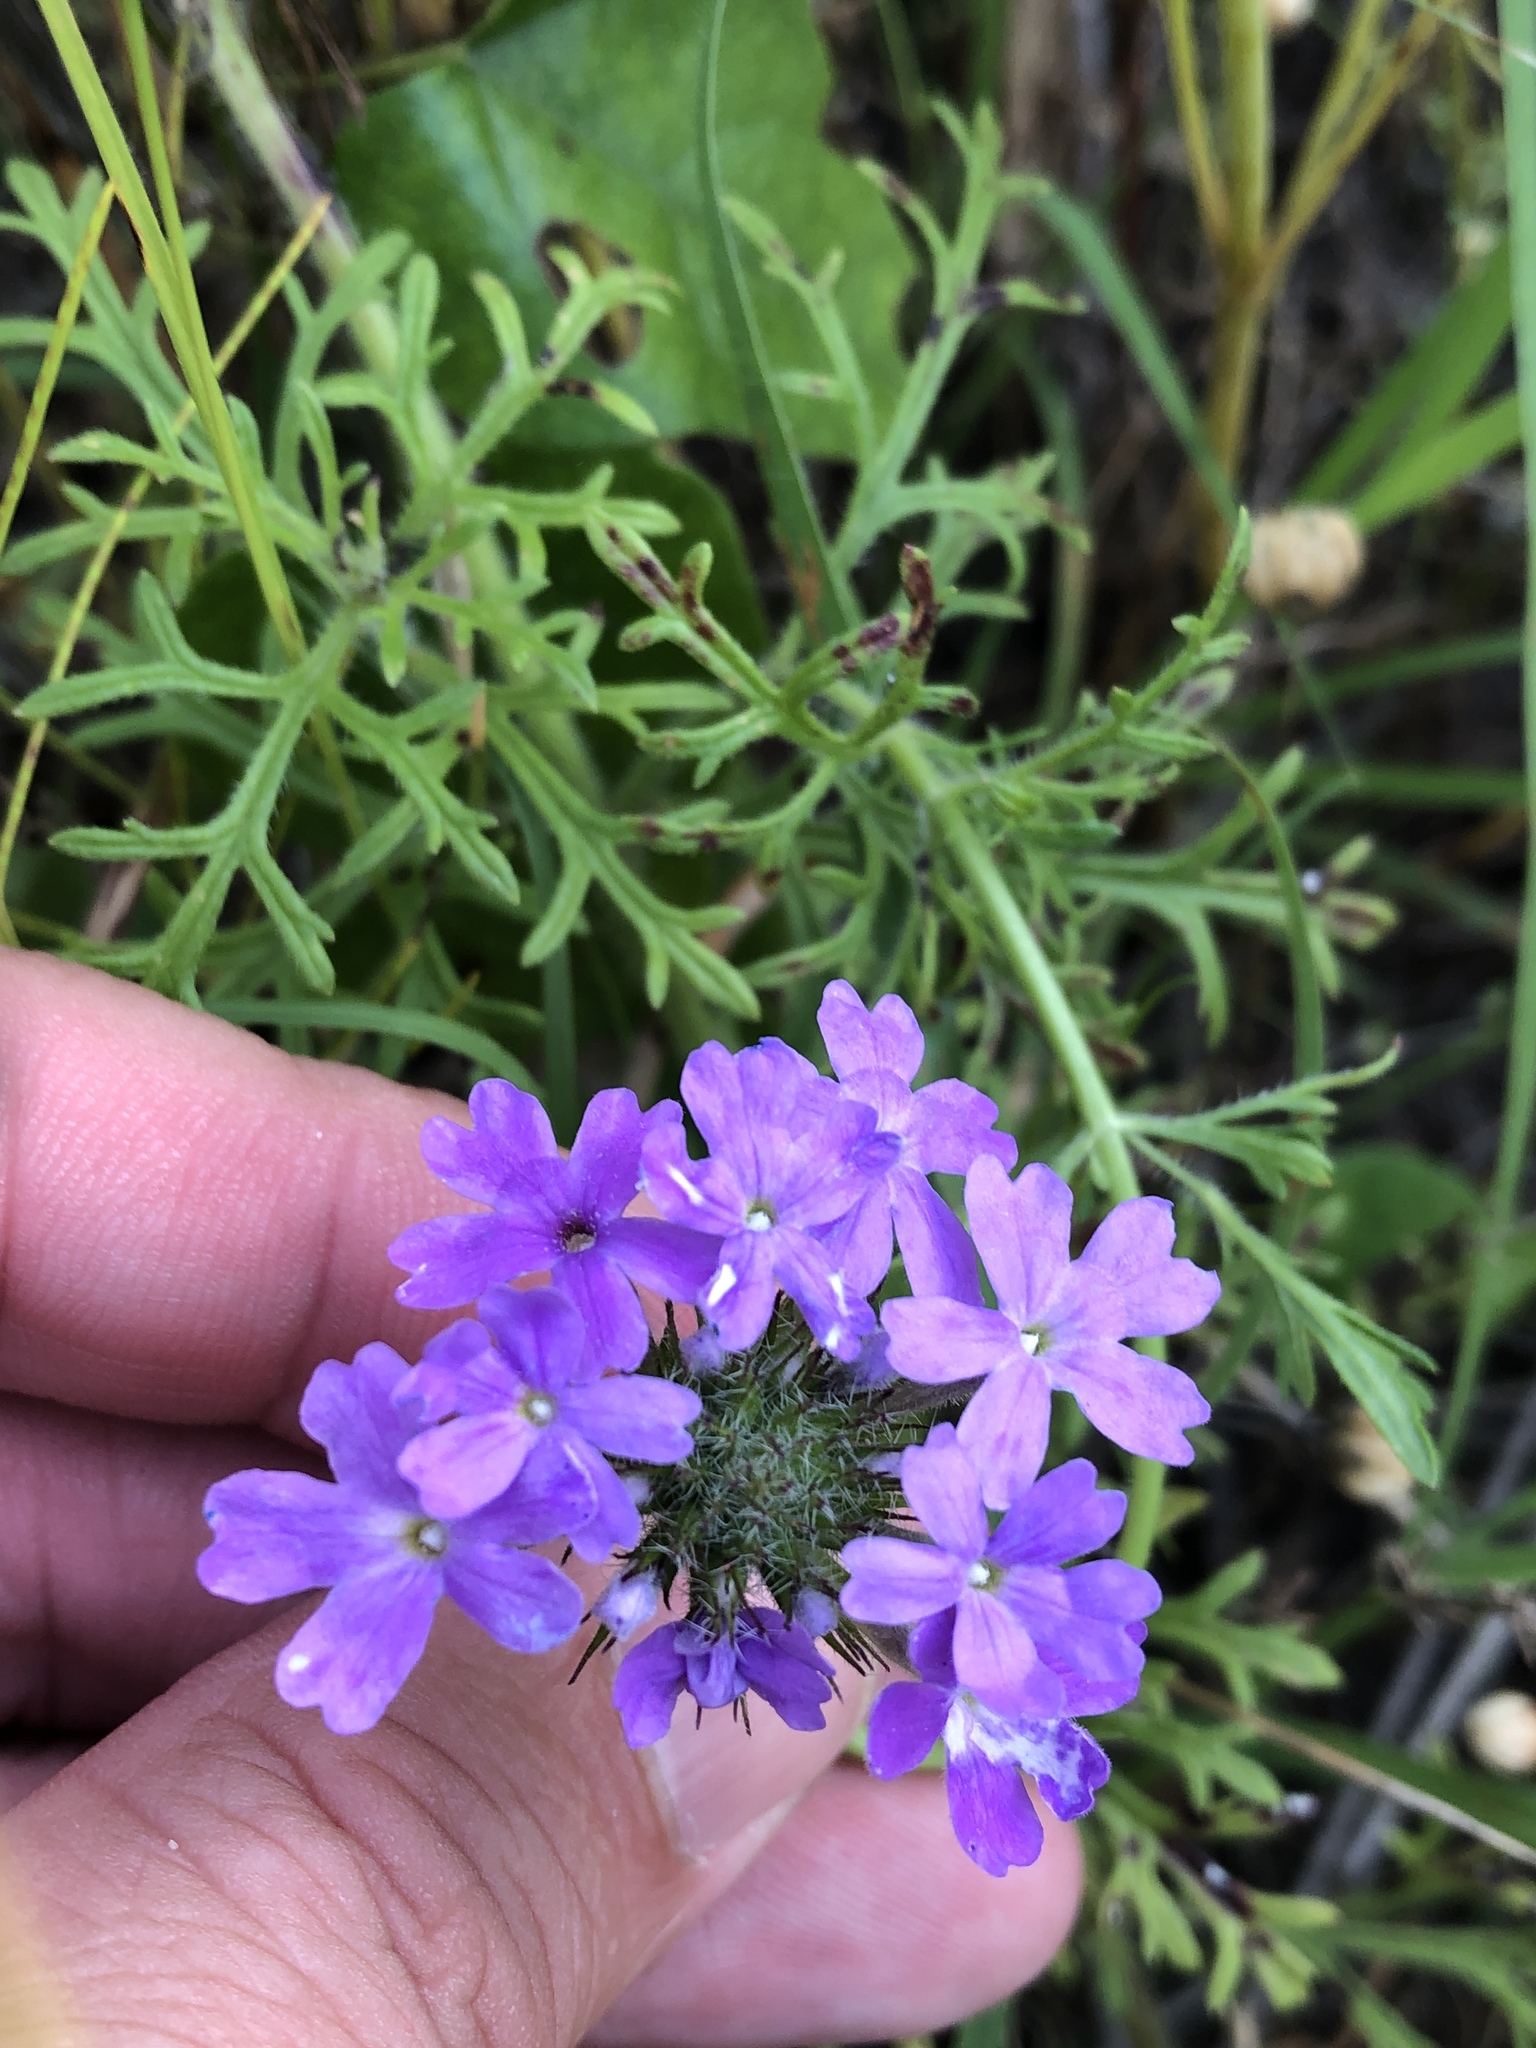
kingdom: Plantae
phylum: Tracheophyta
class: Magnoliopsida
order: Lamiales
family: Verbenaceae
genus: Verbena
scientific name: Verbena bipinnatifida
